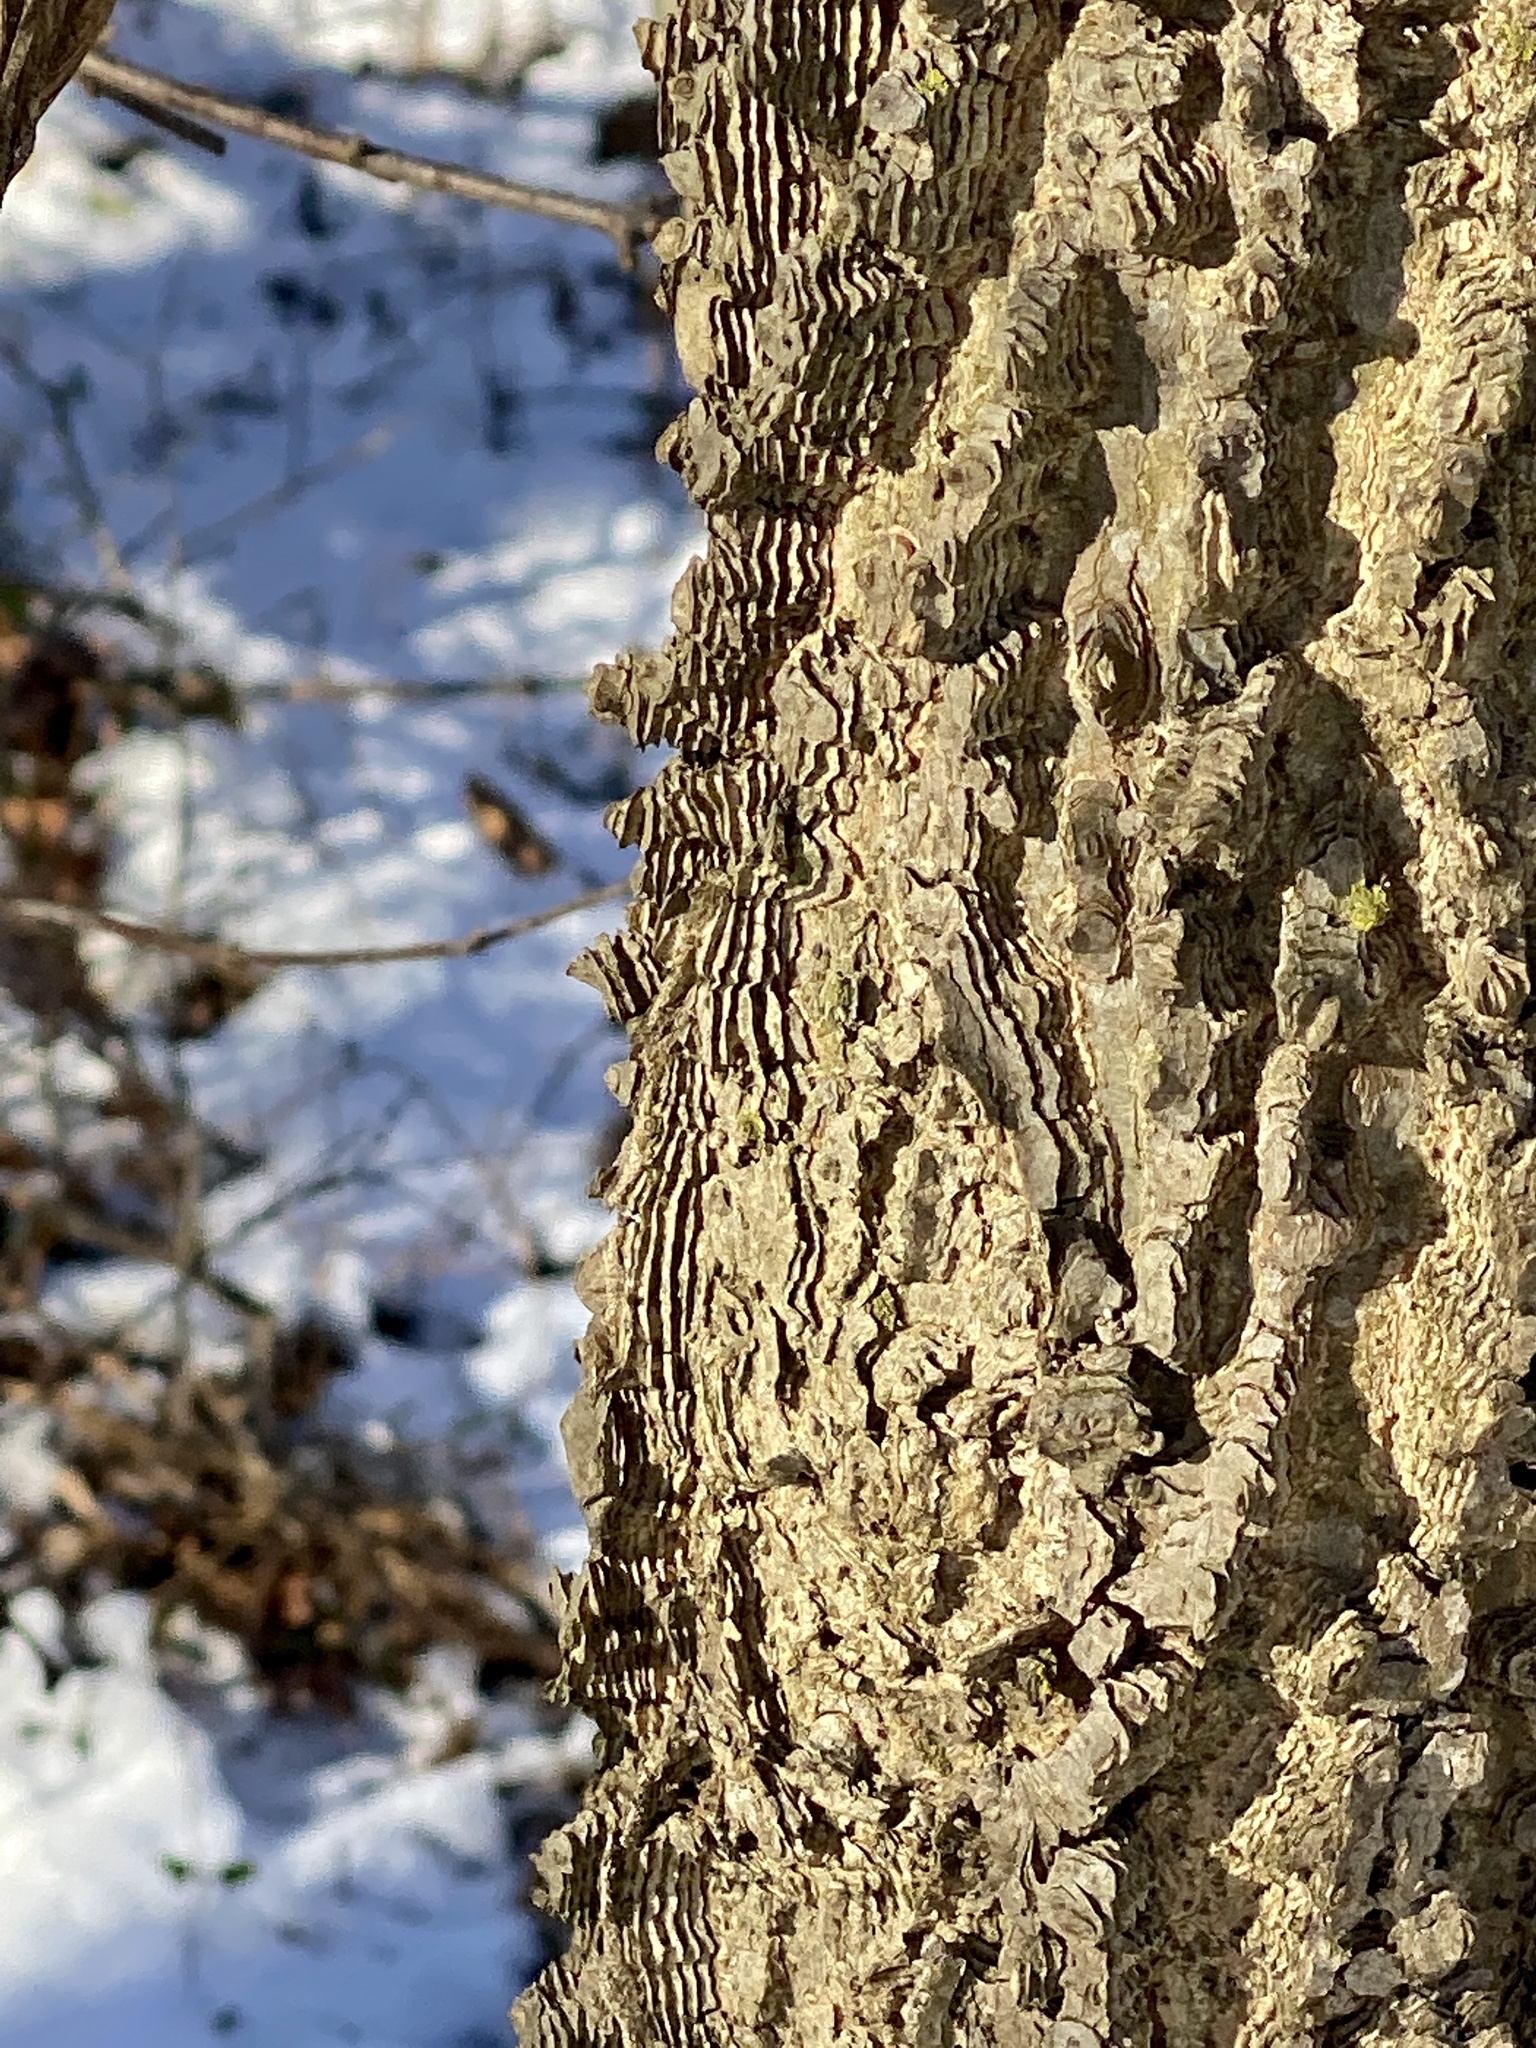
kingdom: Plantae
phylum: Tracheophyta
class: Magnoliopsida
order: Rosales
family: Cannabaceae
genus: Celtis
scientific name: Celtis occidentalis
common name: Common hackberry
